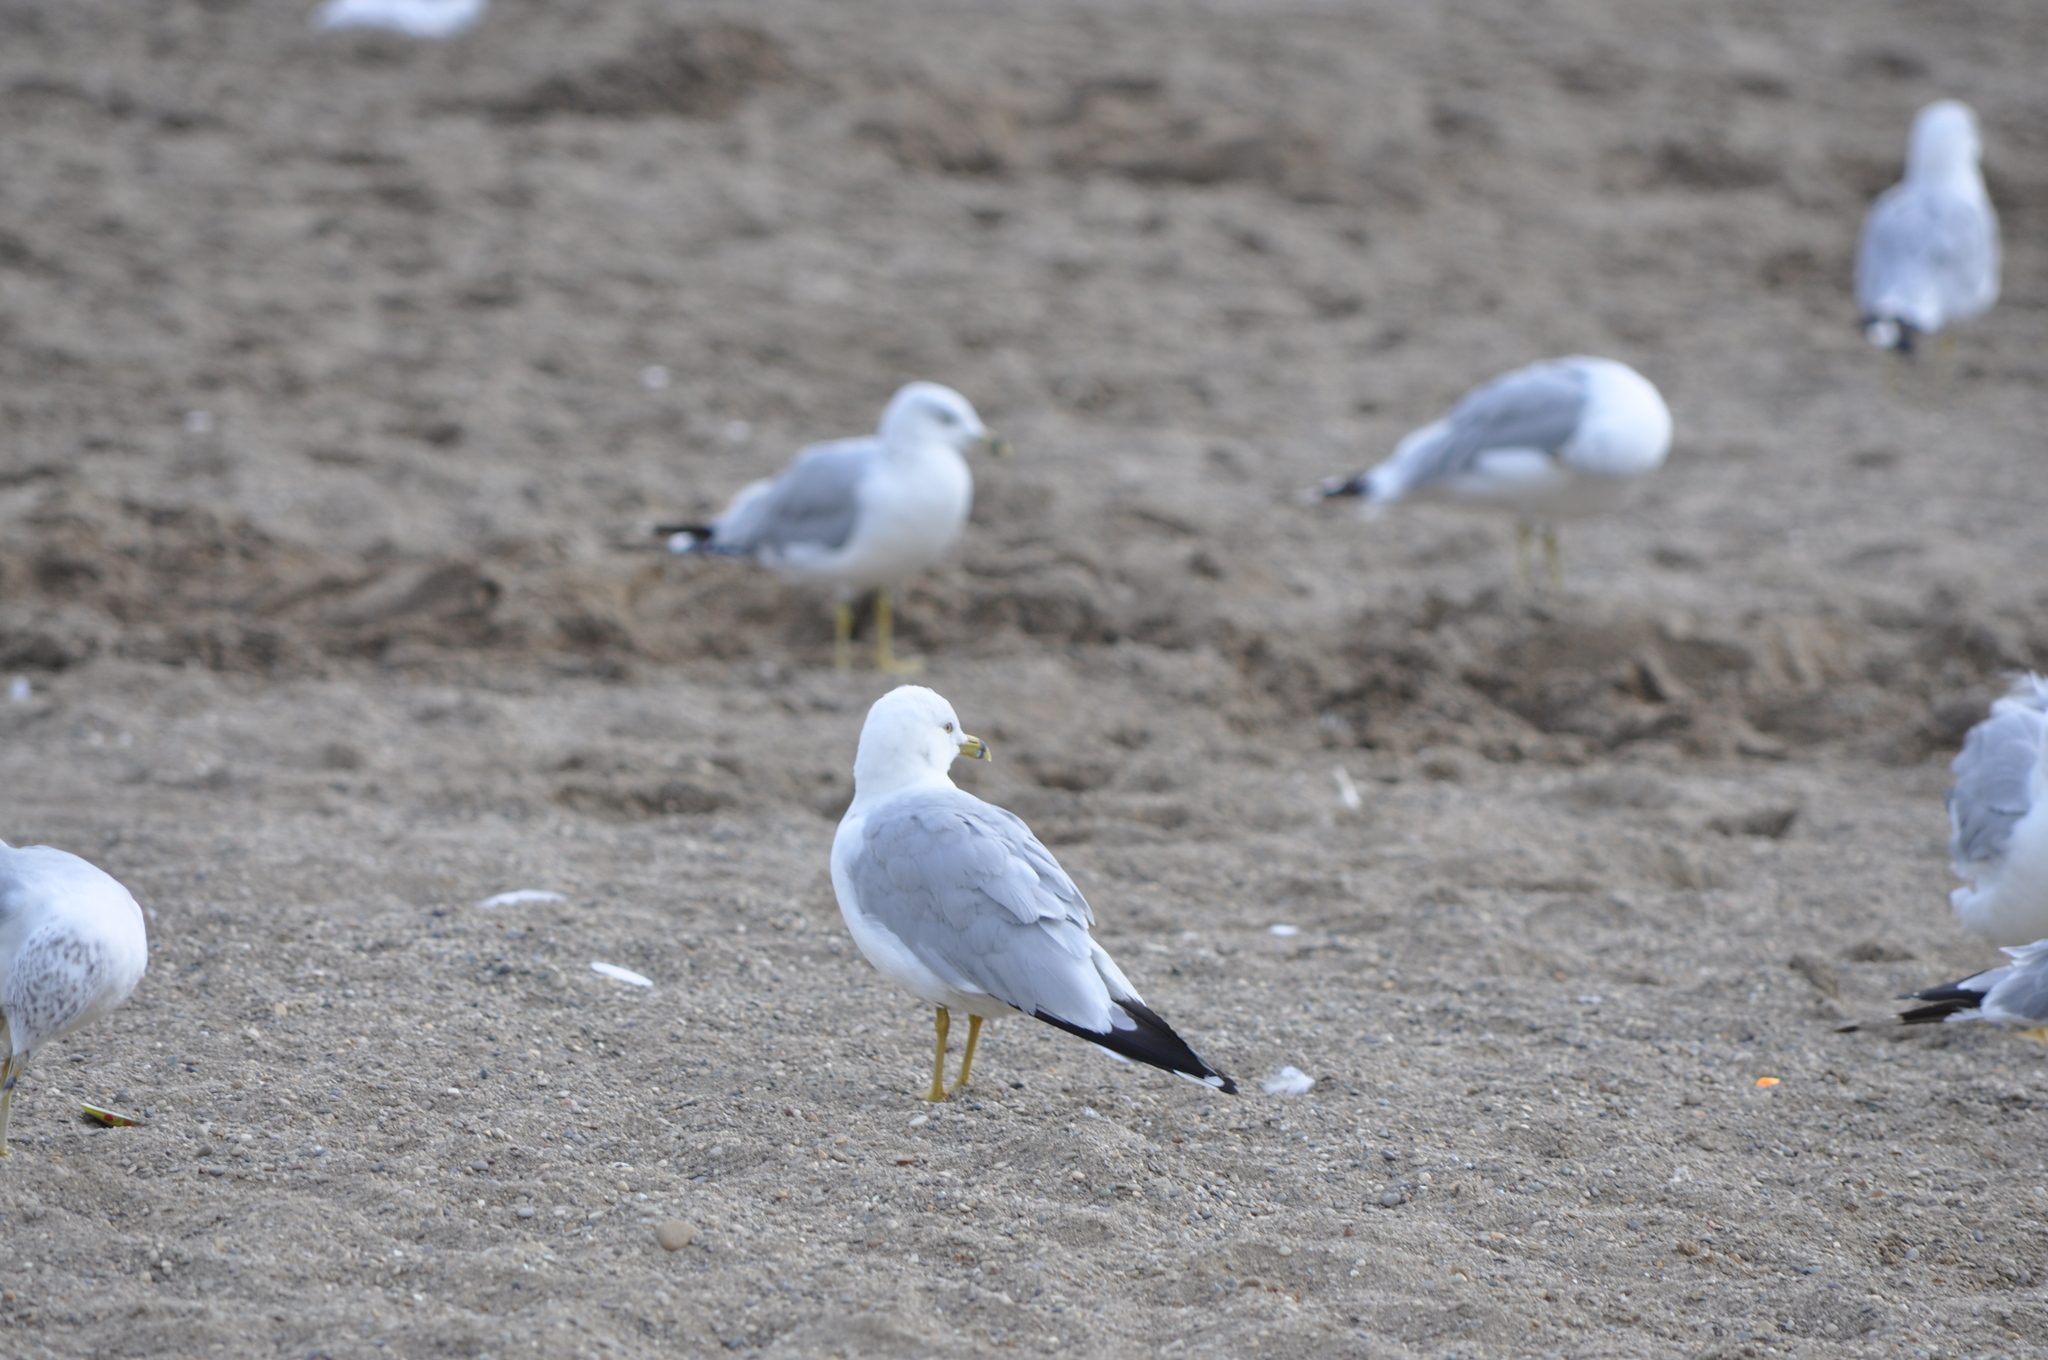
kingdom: Animalia
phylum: Chordata
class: Aves
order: Charadriiformes
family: Laridae
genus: Larus
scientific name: Larus delawarensis
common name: Ring-billed gull
